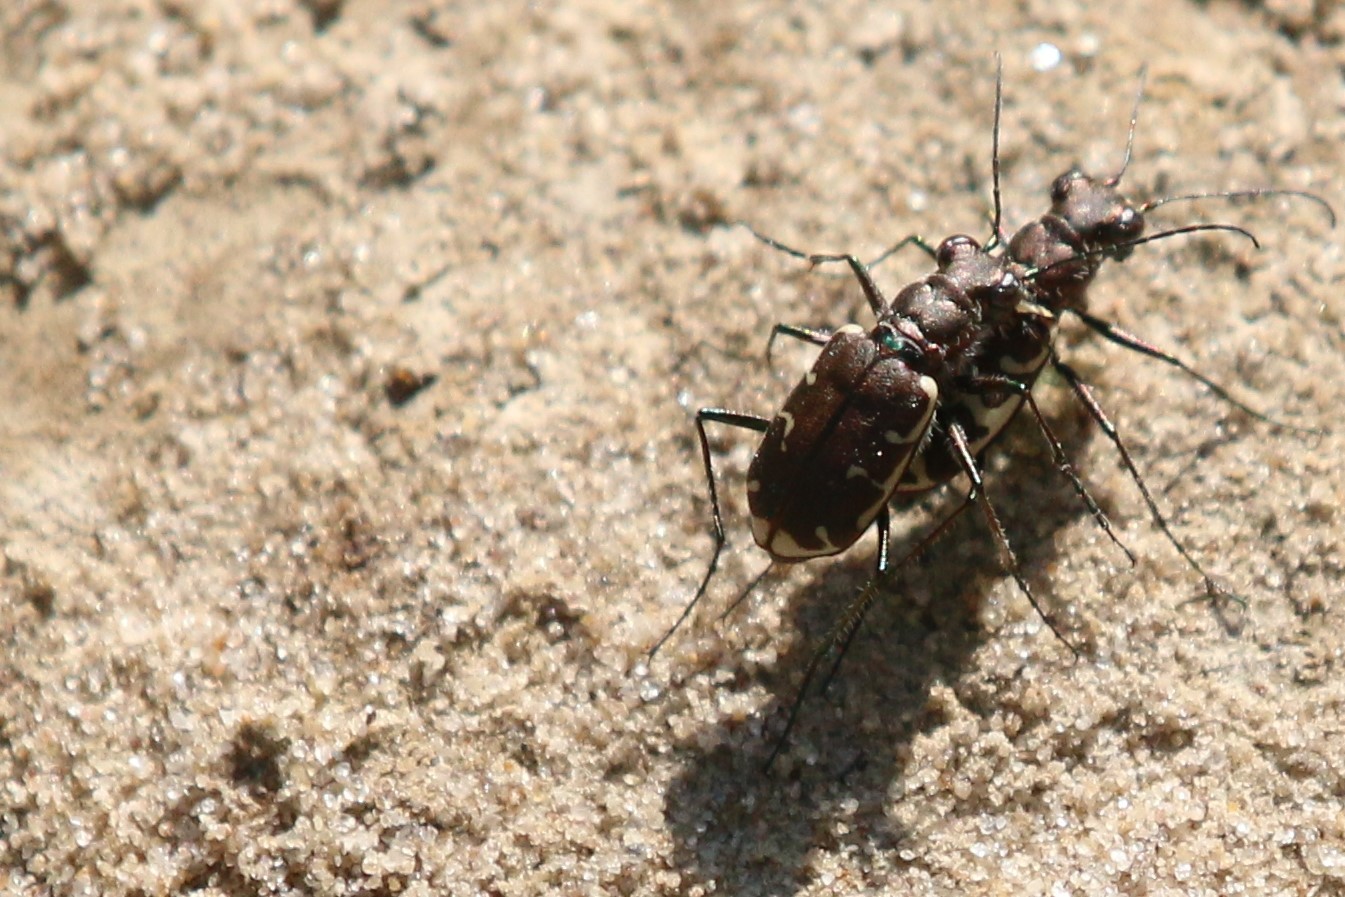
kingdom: Animalia
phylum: Arthropoda
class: Insecta
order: Coleoptera
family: Carabidae
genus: Cicindela
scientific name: Cicindela repanda
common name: Bronzed tiger beetle
